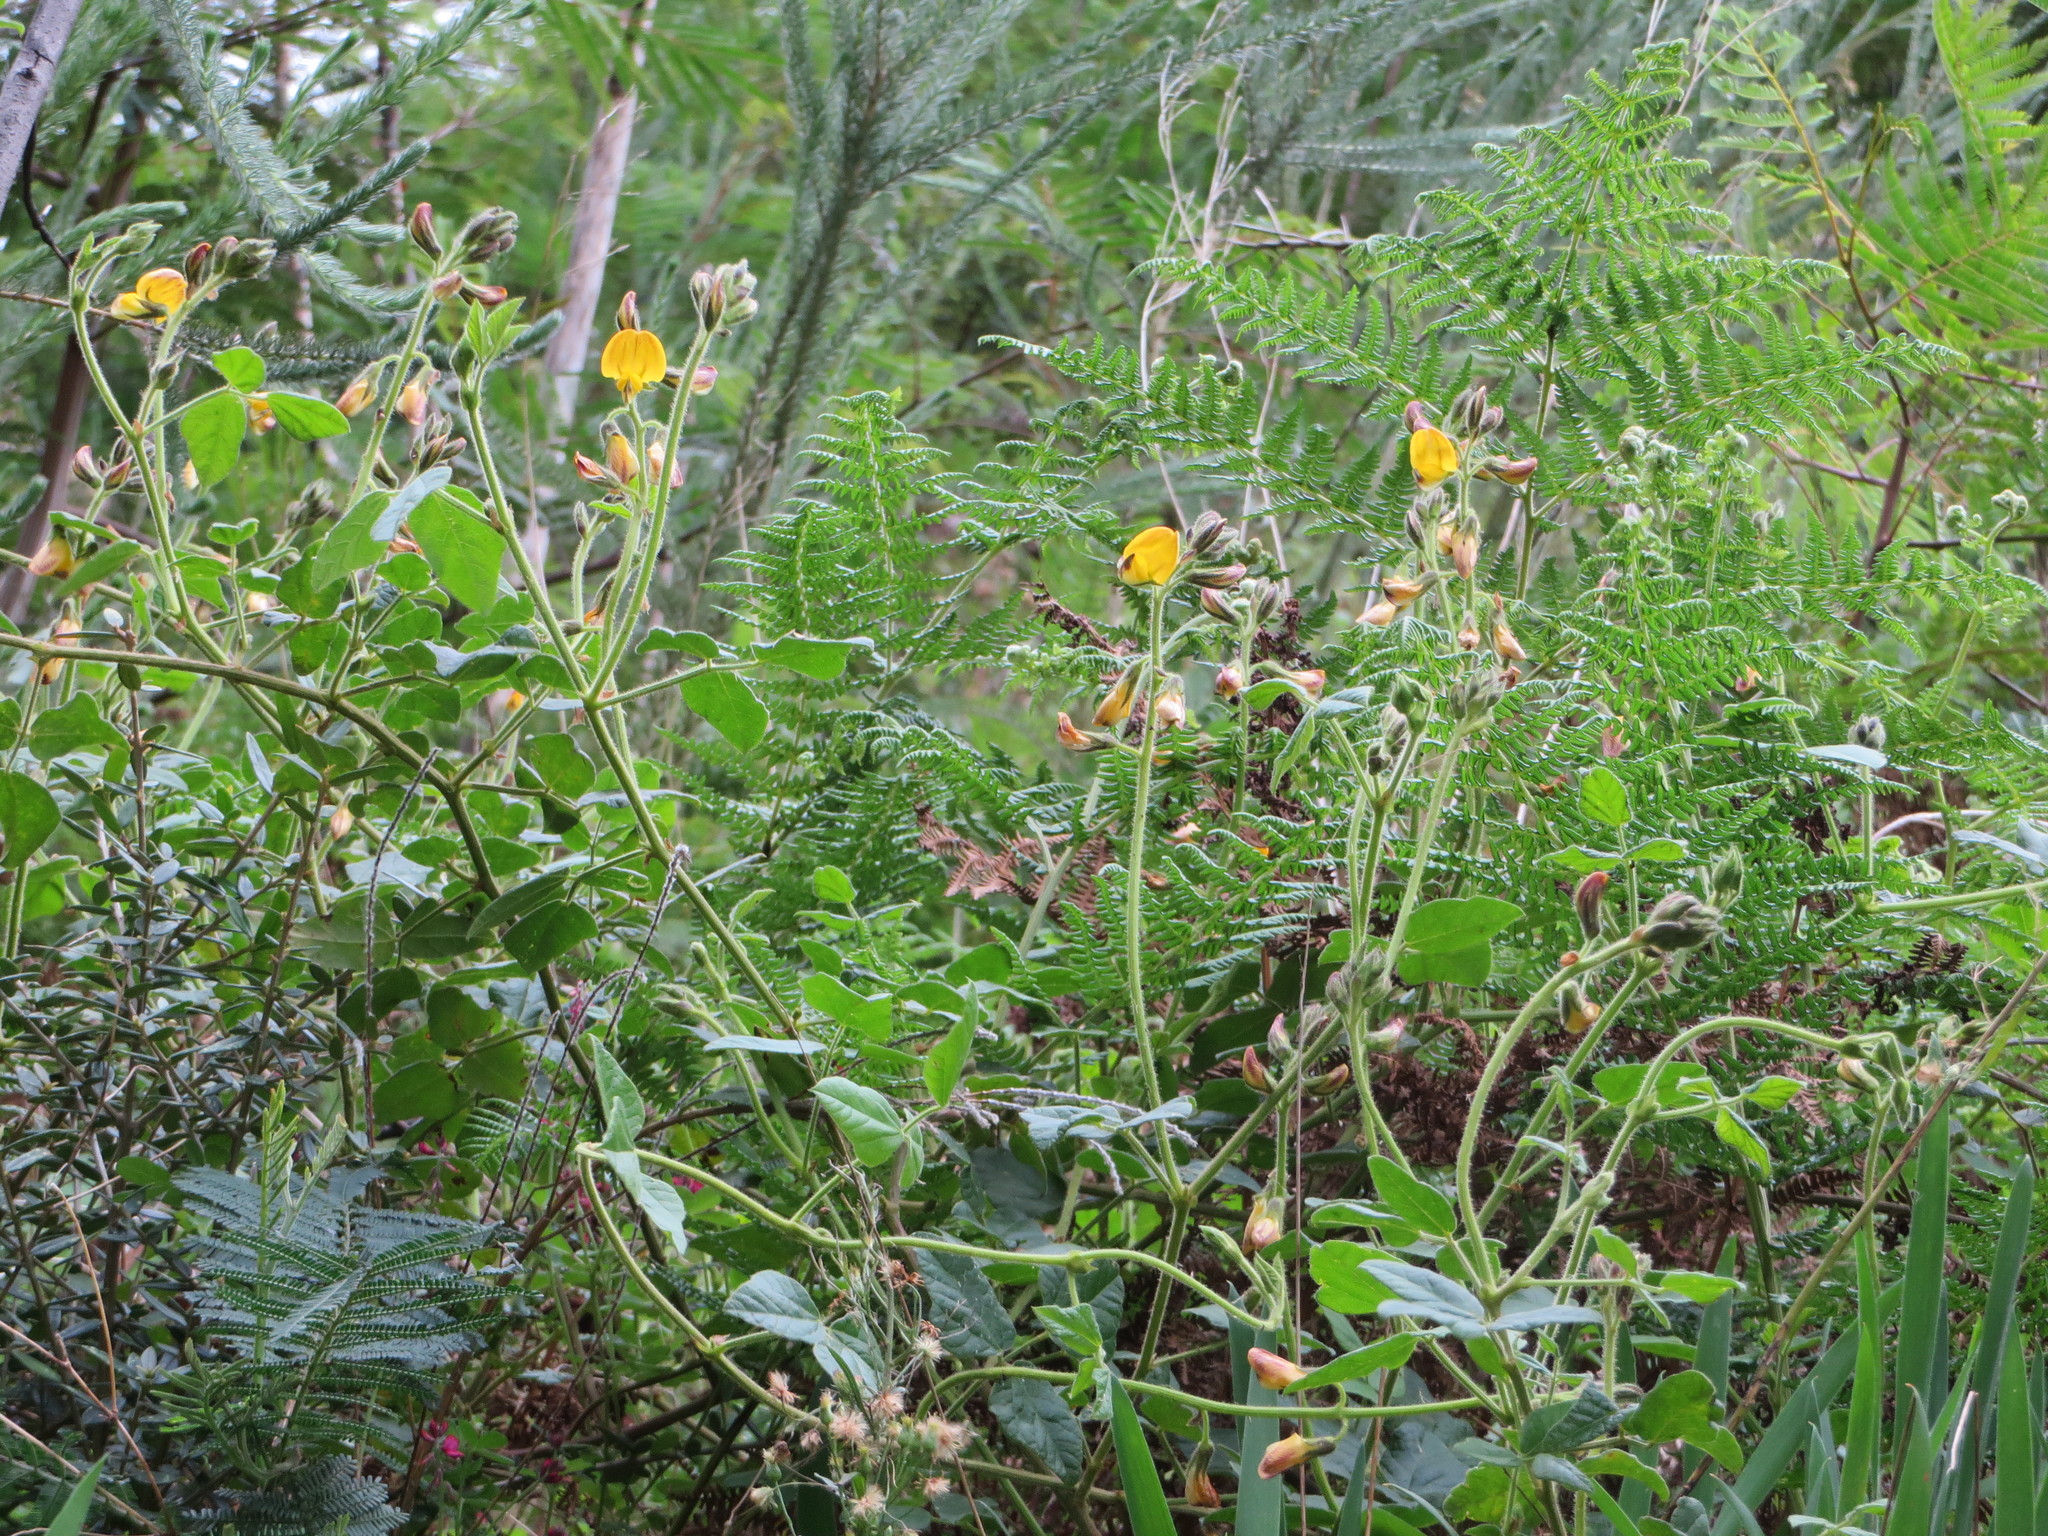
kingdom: Plantae
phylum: Tracheophyta
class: Magnoliopsida
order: Fabales
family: Fabaceae
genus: Bolusafra
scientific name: Bolusafra bituminosa
